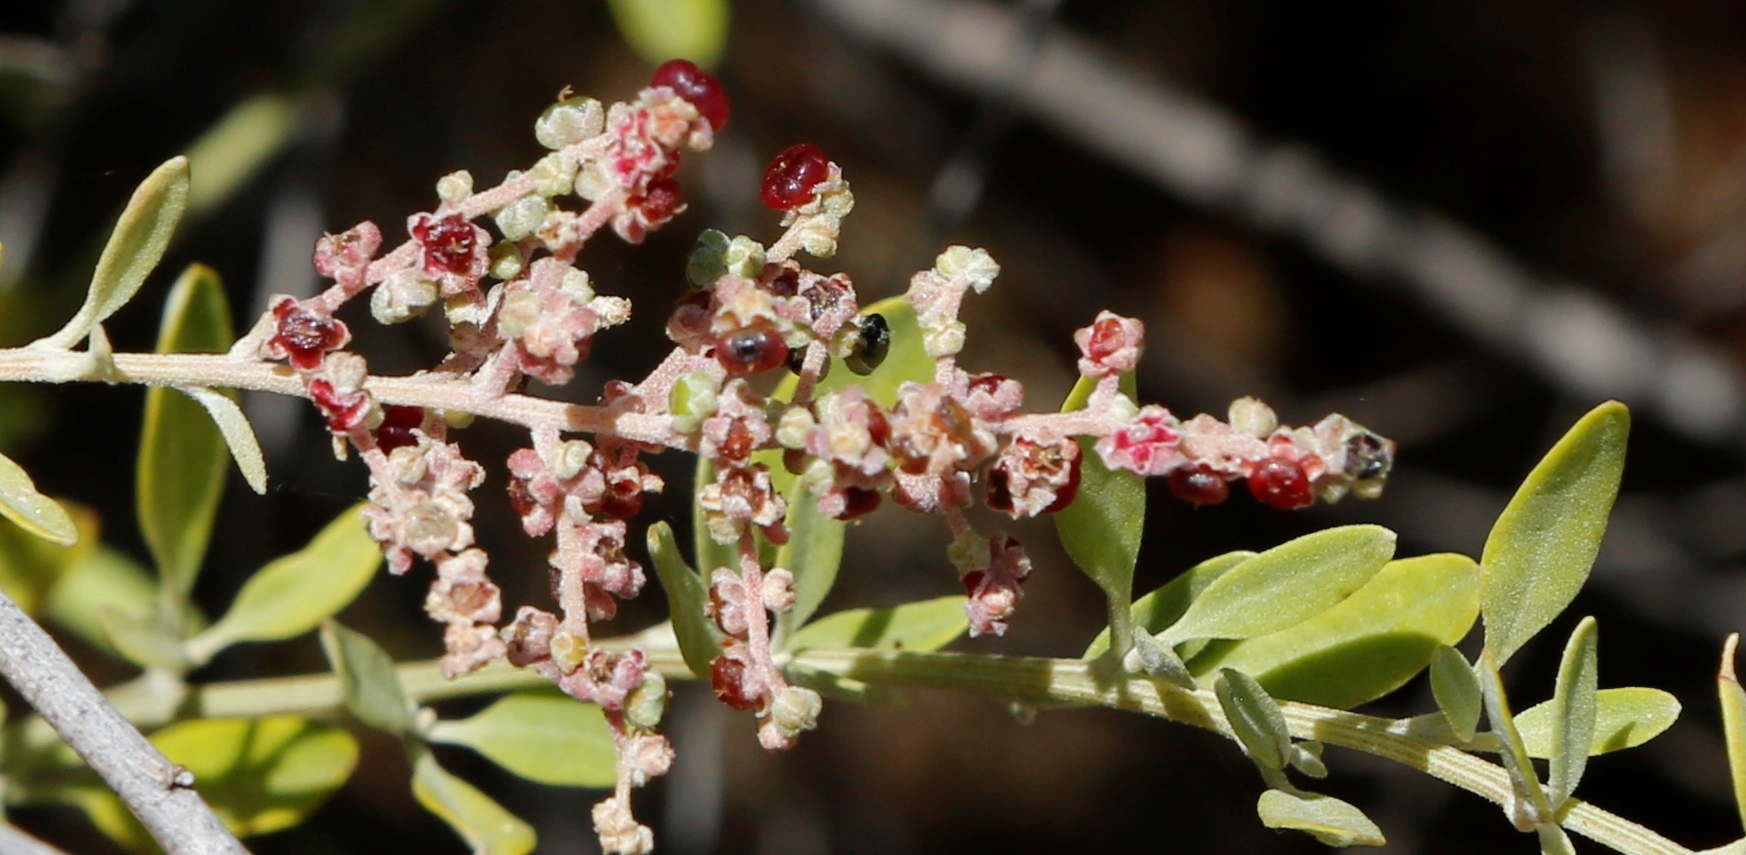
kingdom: Plantae
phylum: Tracheophyta
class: Magnoliopsida
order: Caryophyllales
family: Amaranthaceae
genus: Chenopodium
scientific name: Chenopodium baccatum
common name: Coastal-saltbush
